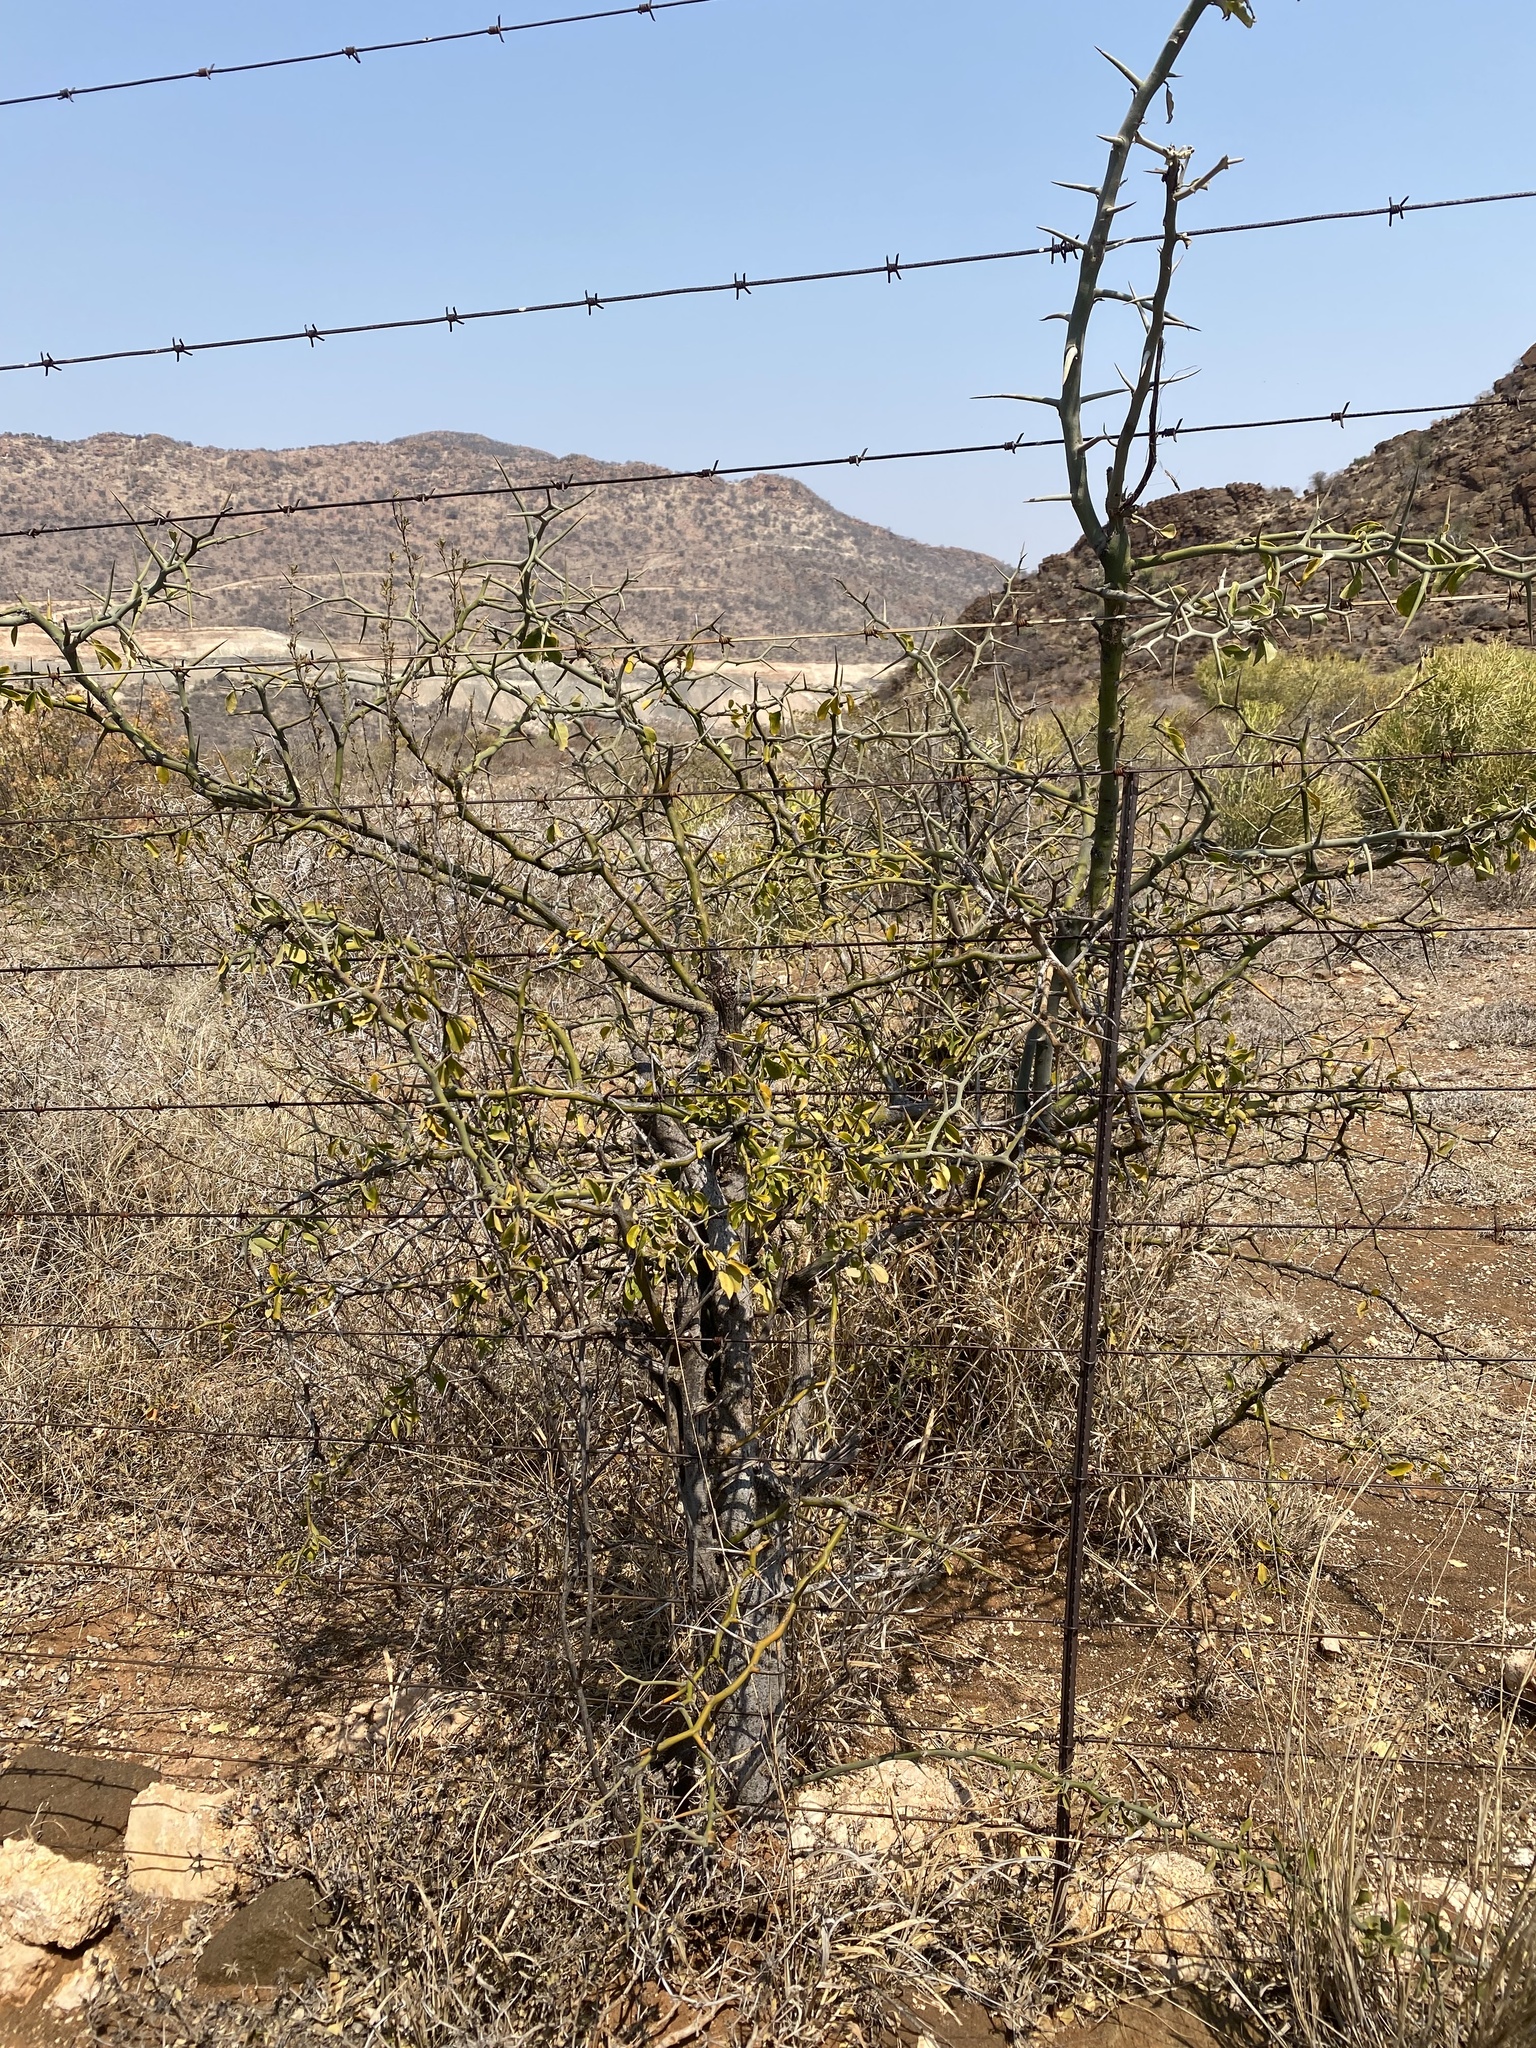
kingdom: Plantae
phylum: Tracheophyta
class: Magnoliopsida
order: Zygophyllales
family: Zygophyllaceae
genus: Balanites
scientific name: Balanites maughamii
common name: Torchwood
